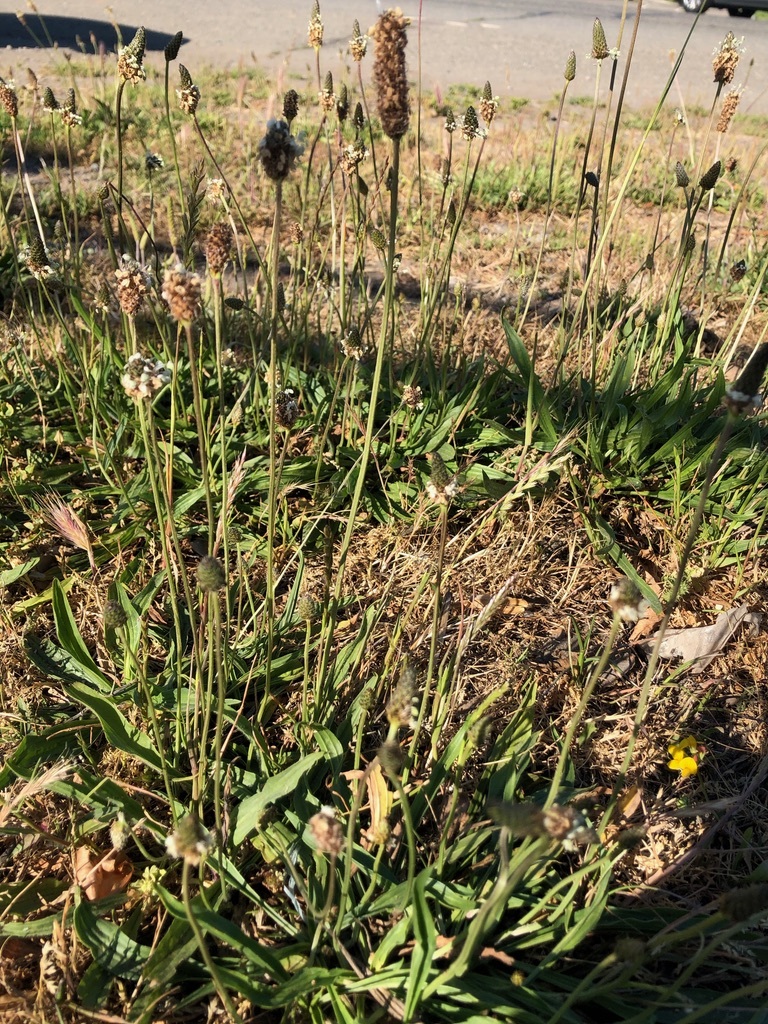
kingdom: Plantae
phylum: Tracheophyta
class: Magnoliopsida
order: Lamiales
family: Plantaginaceae
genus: Plantago
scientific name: Plantago lanceolata
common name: Ribwort plantain
